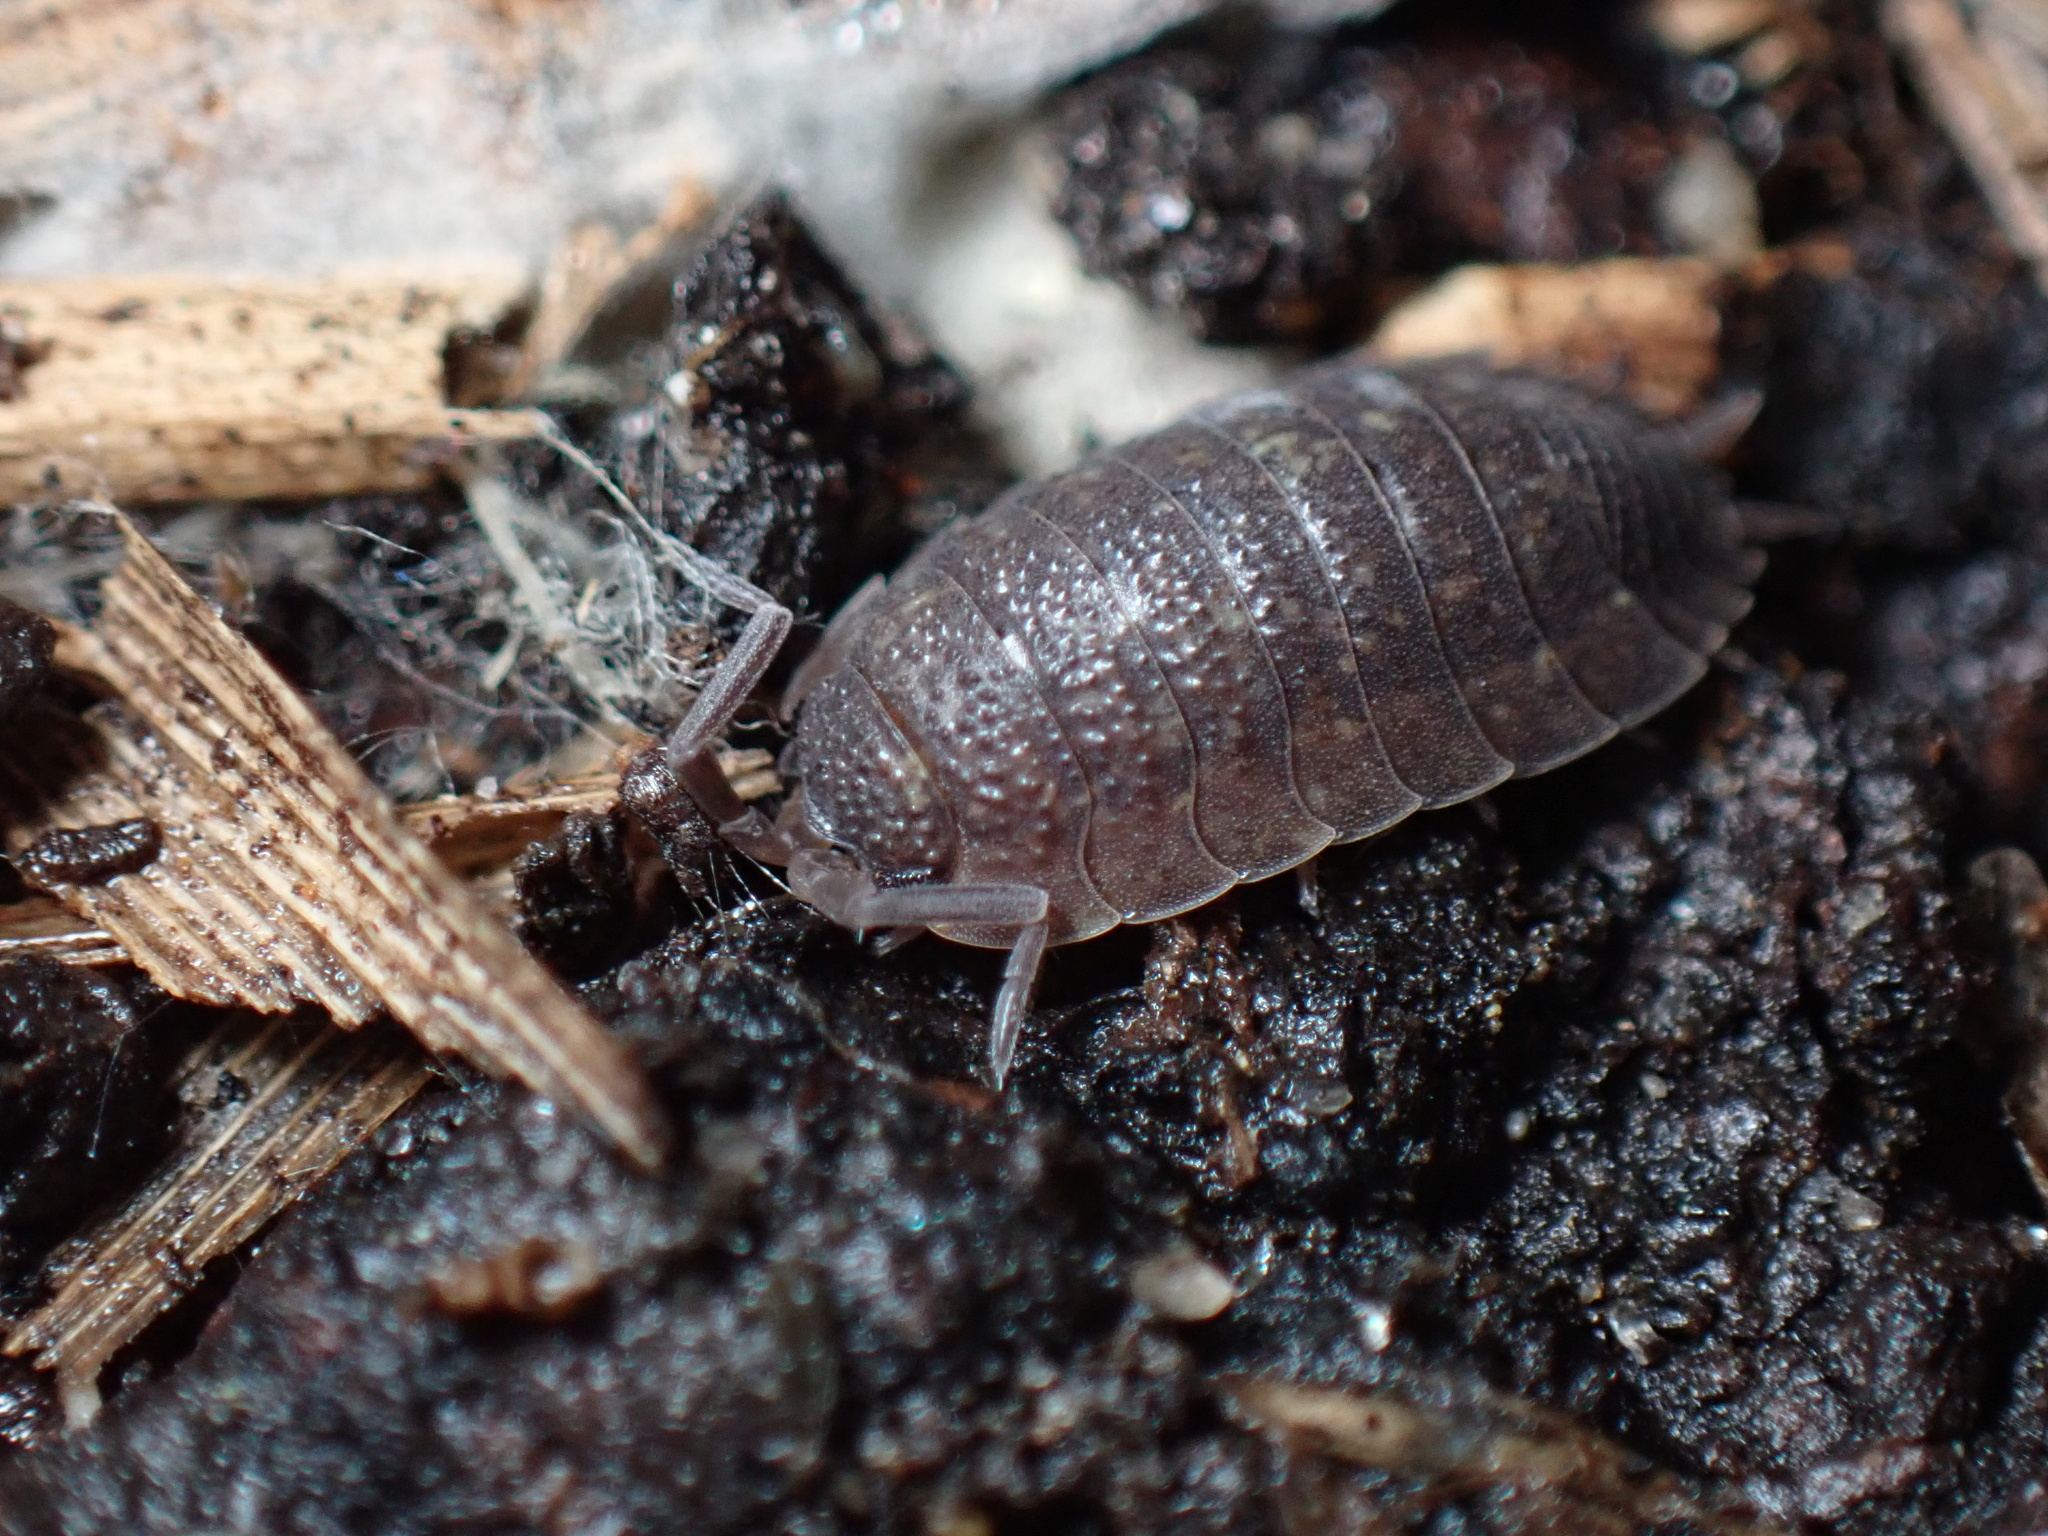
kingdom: Animalia
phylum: Arthropoda
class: Malacostraca
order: Isopoda
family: Porcellionidae
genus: Porcellio
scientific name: Porcellio scaber
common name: Common rough woodlouse
